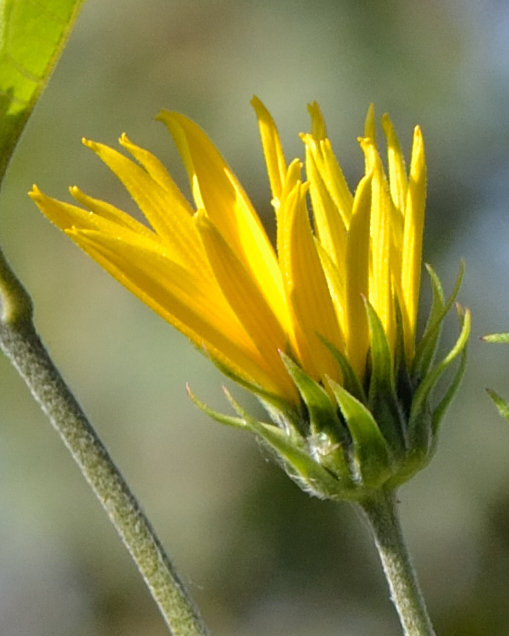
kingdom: Plantae
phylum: Tracheophyta
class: Magnoliopsida
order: Asterales
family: Asteraceae
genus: Helianthus
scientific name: Helianthus tuberosus
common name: Jerusalem artichoke
